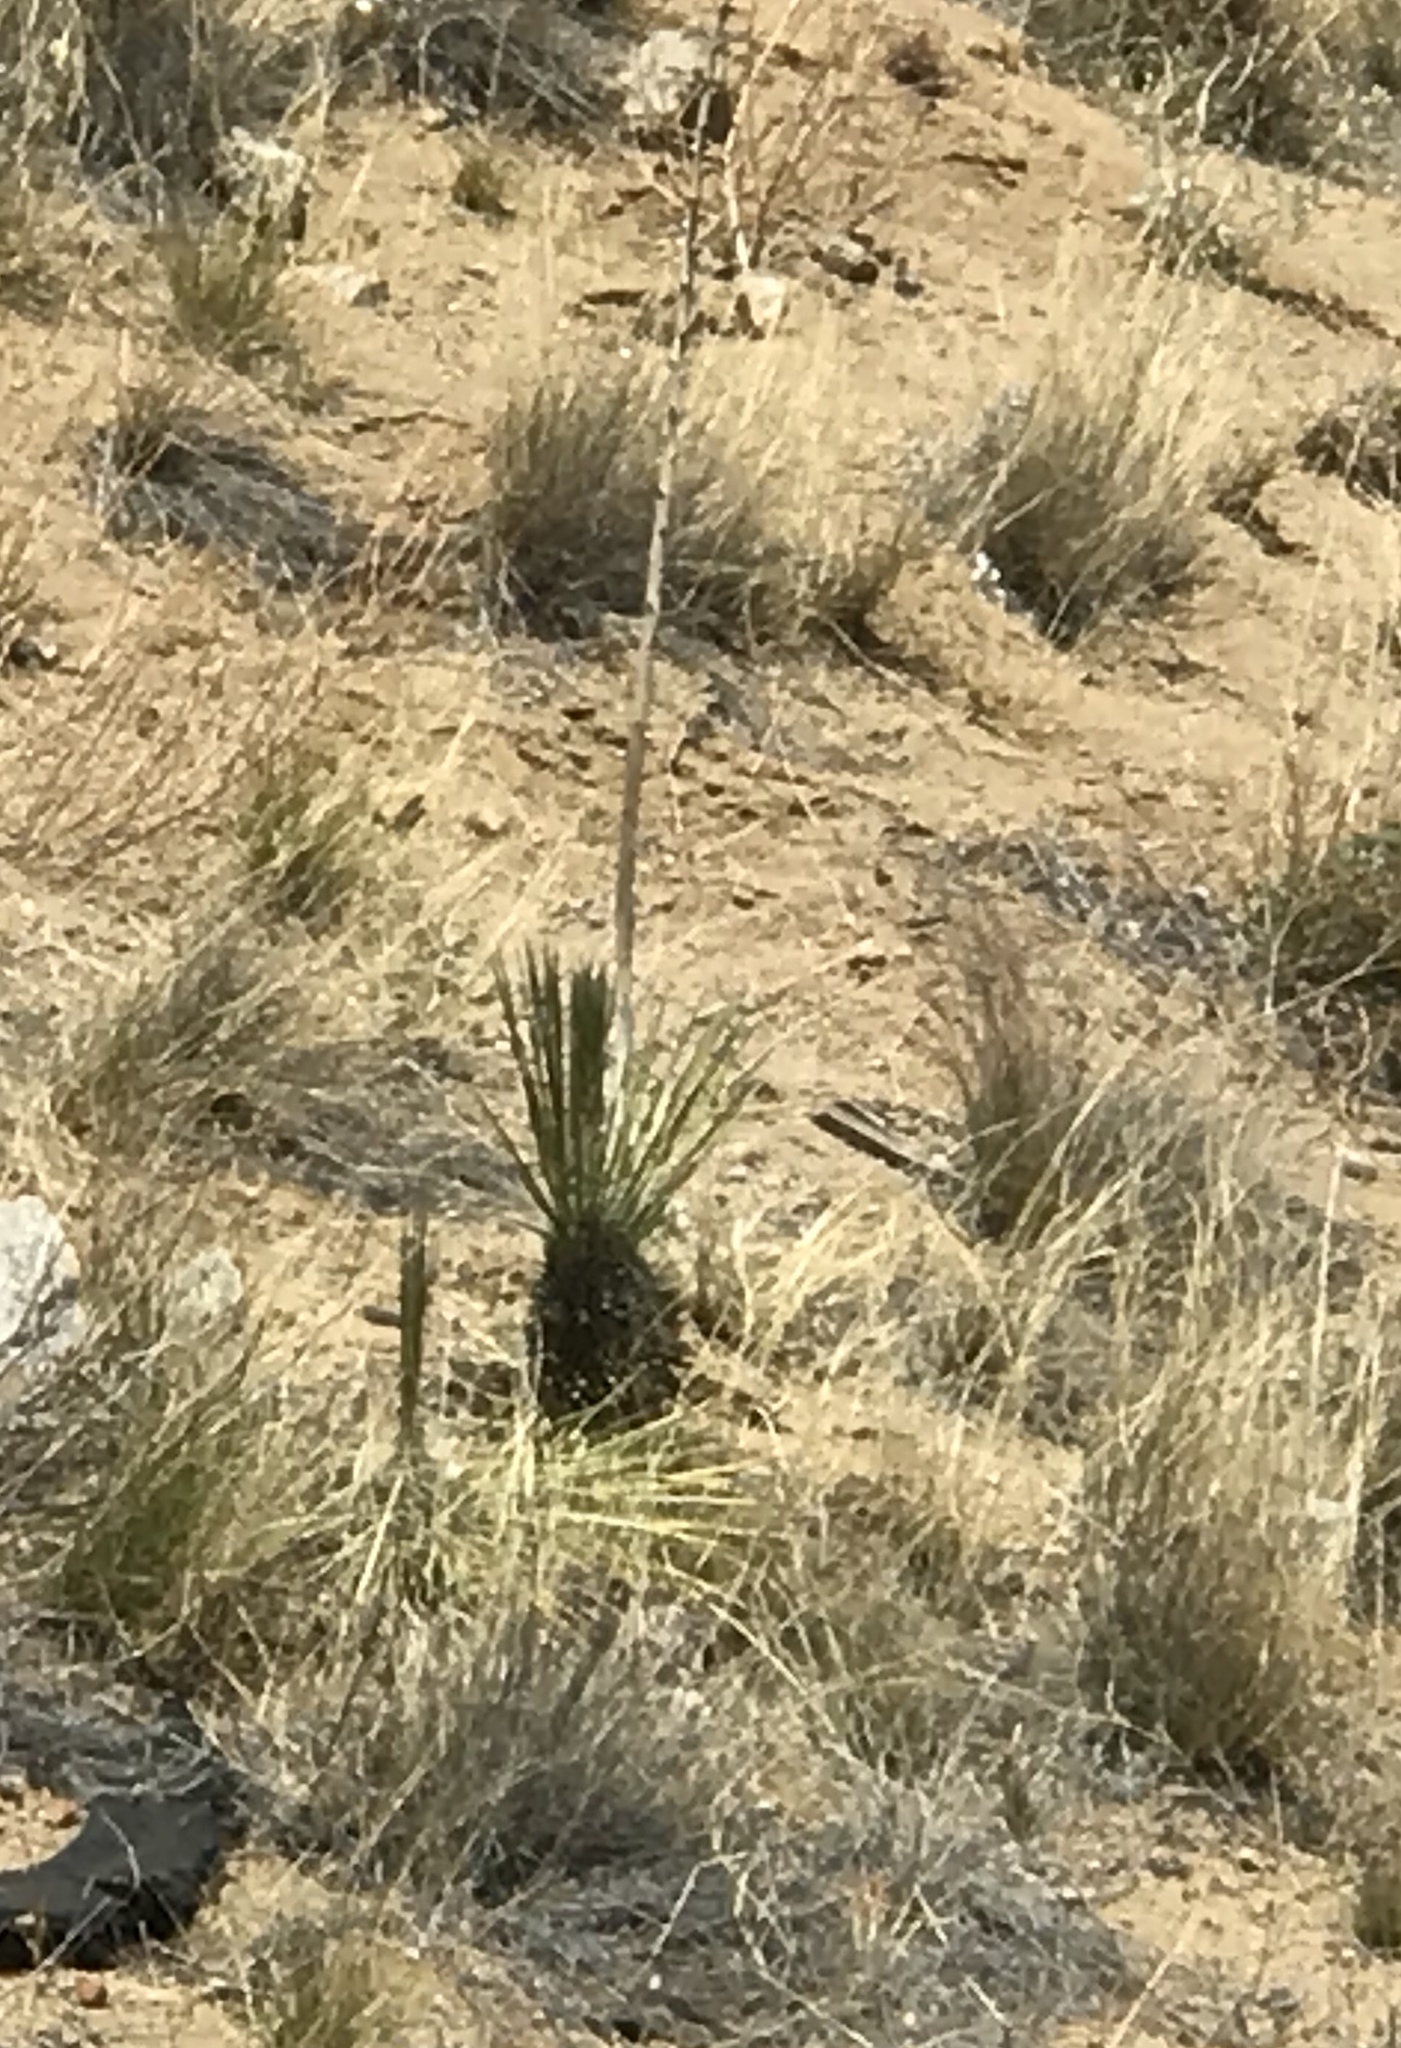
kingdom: Plantae
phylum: Tracheophyta
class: Liliopsida
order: Asparagales
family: Asparagaceae
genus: Yucca
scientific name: Yucca elata
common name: Palmella
